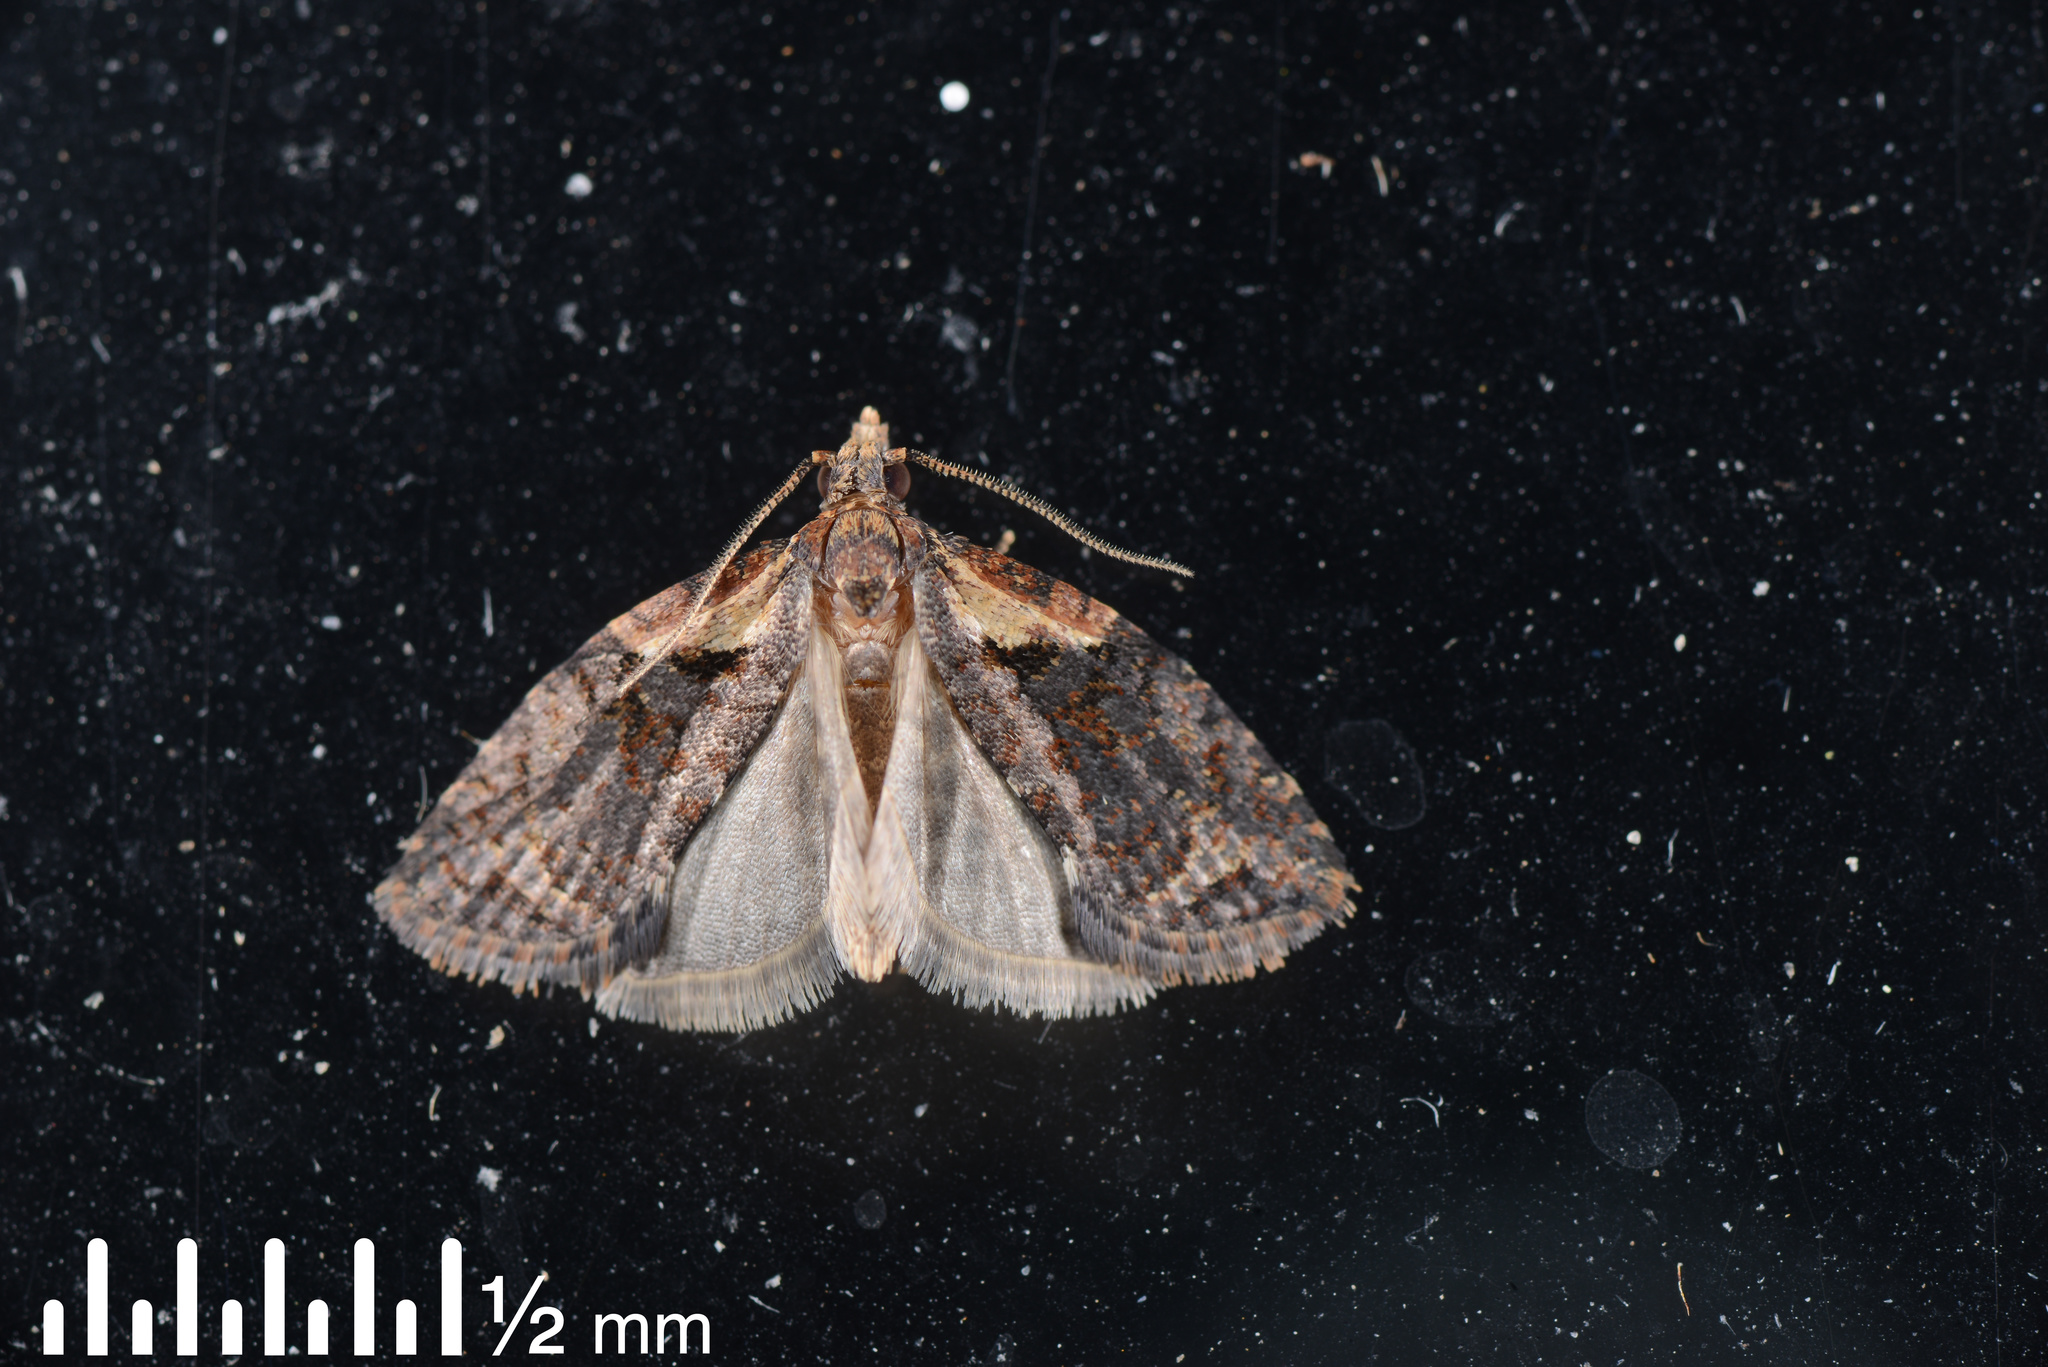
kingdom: Animalia
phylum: Arthropoda
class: Insecta
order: Lepidoptera
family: Tortricidae
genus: Capua
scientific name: Capua intractana
